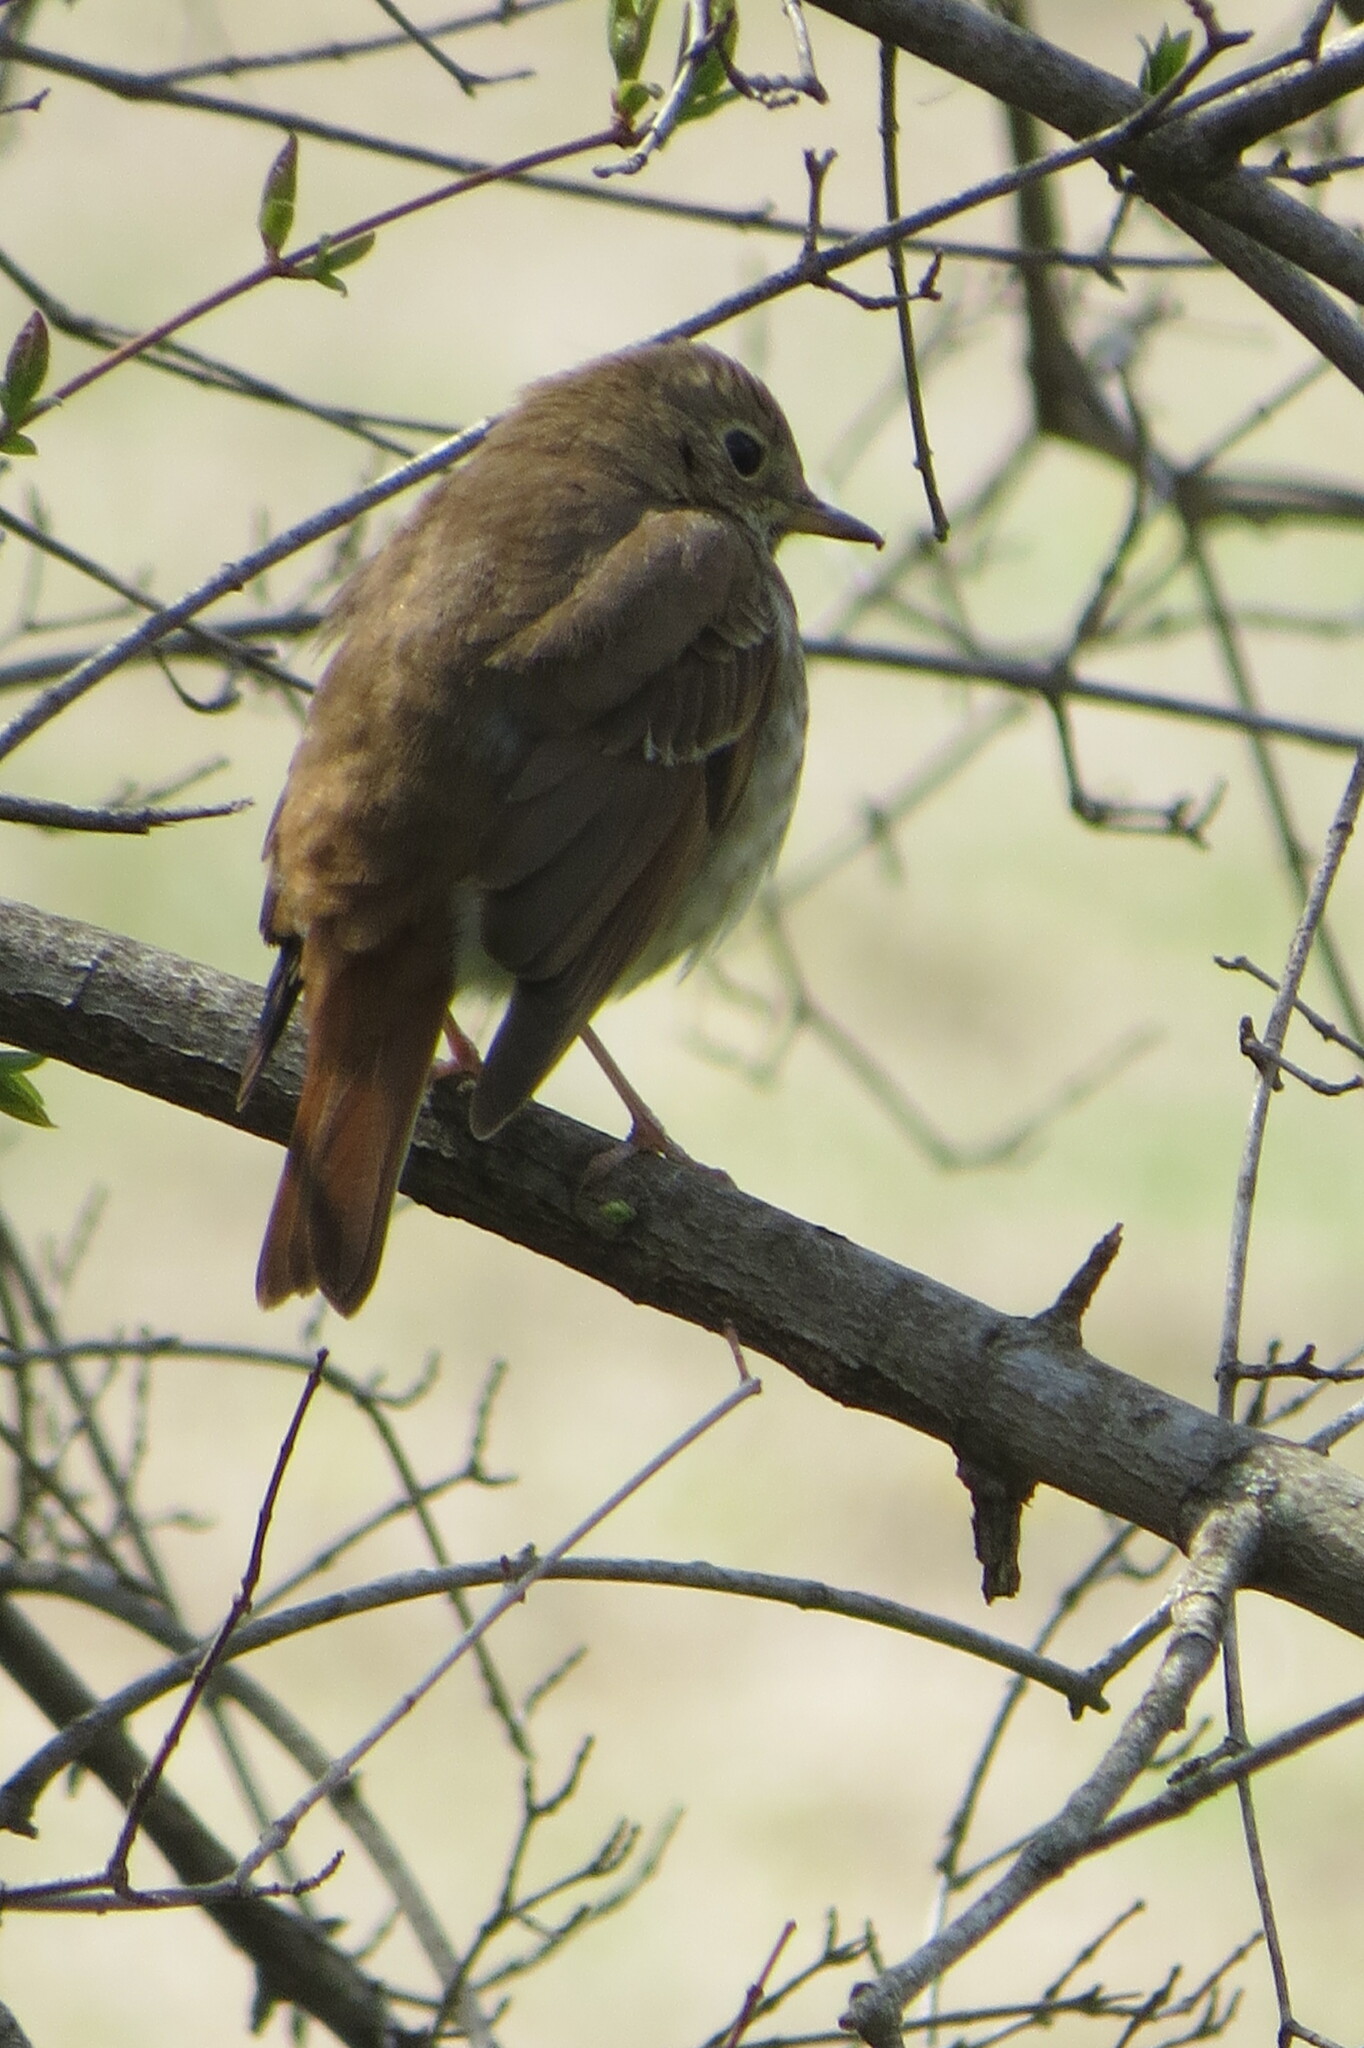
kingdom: Animalia
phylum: Chordata
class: Aves
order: Passeriformes
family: Turdidae
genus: Catharus
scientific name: Catharus guttatus
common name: Hermit thrush
